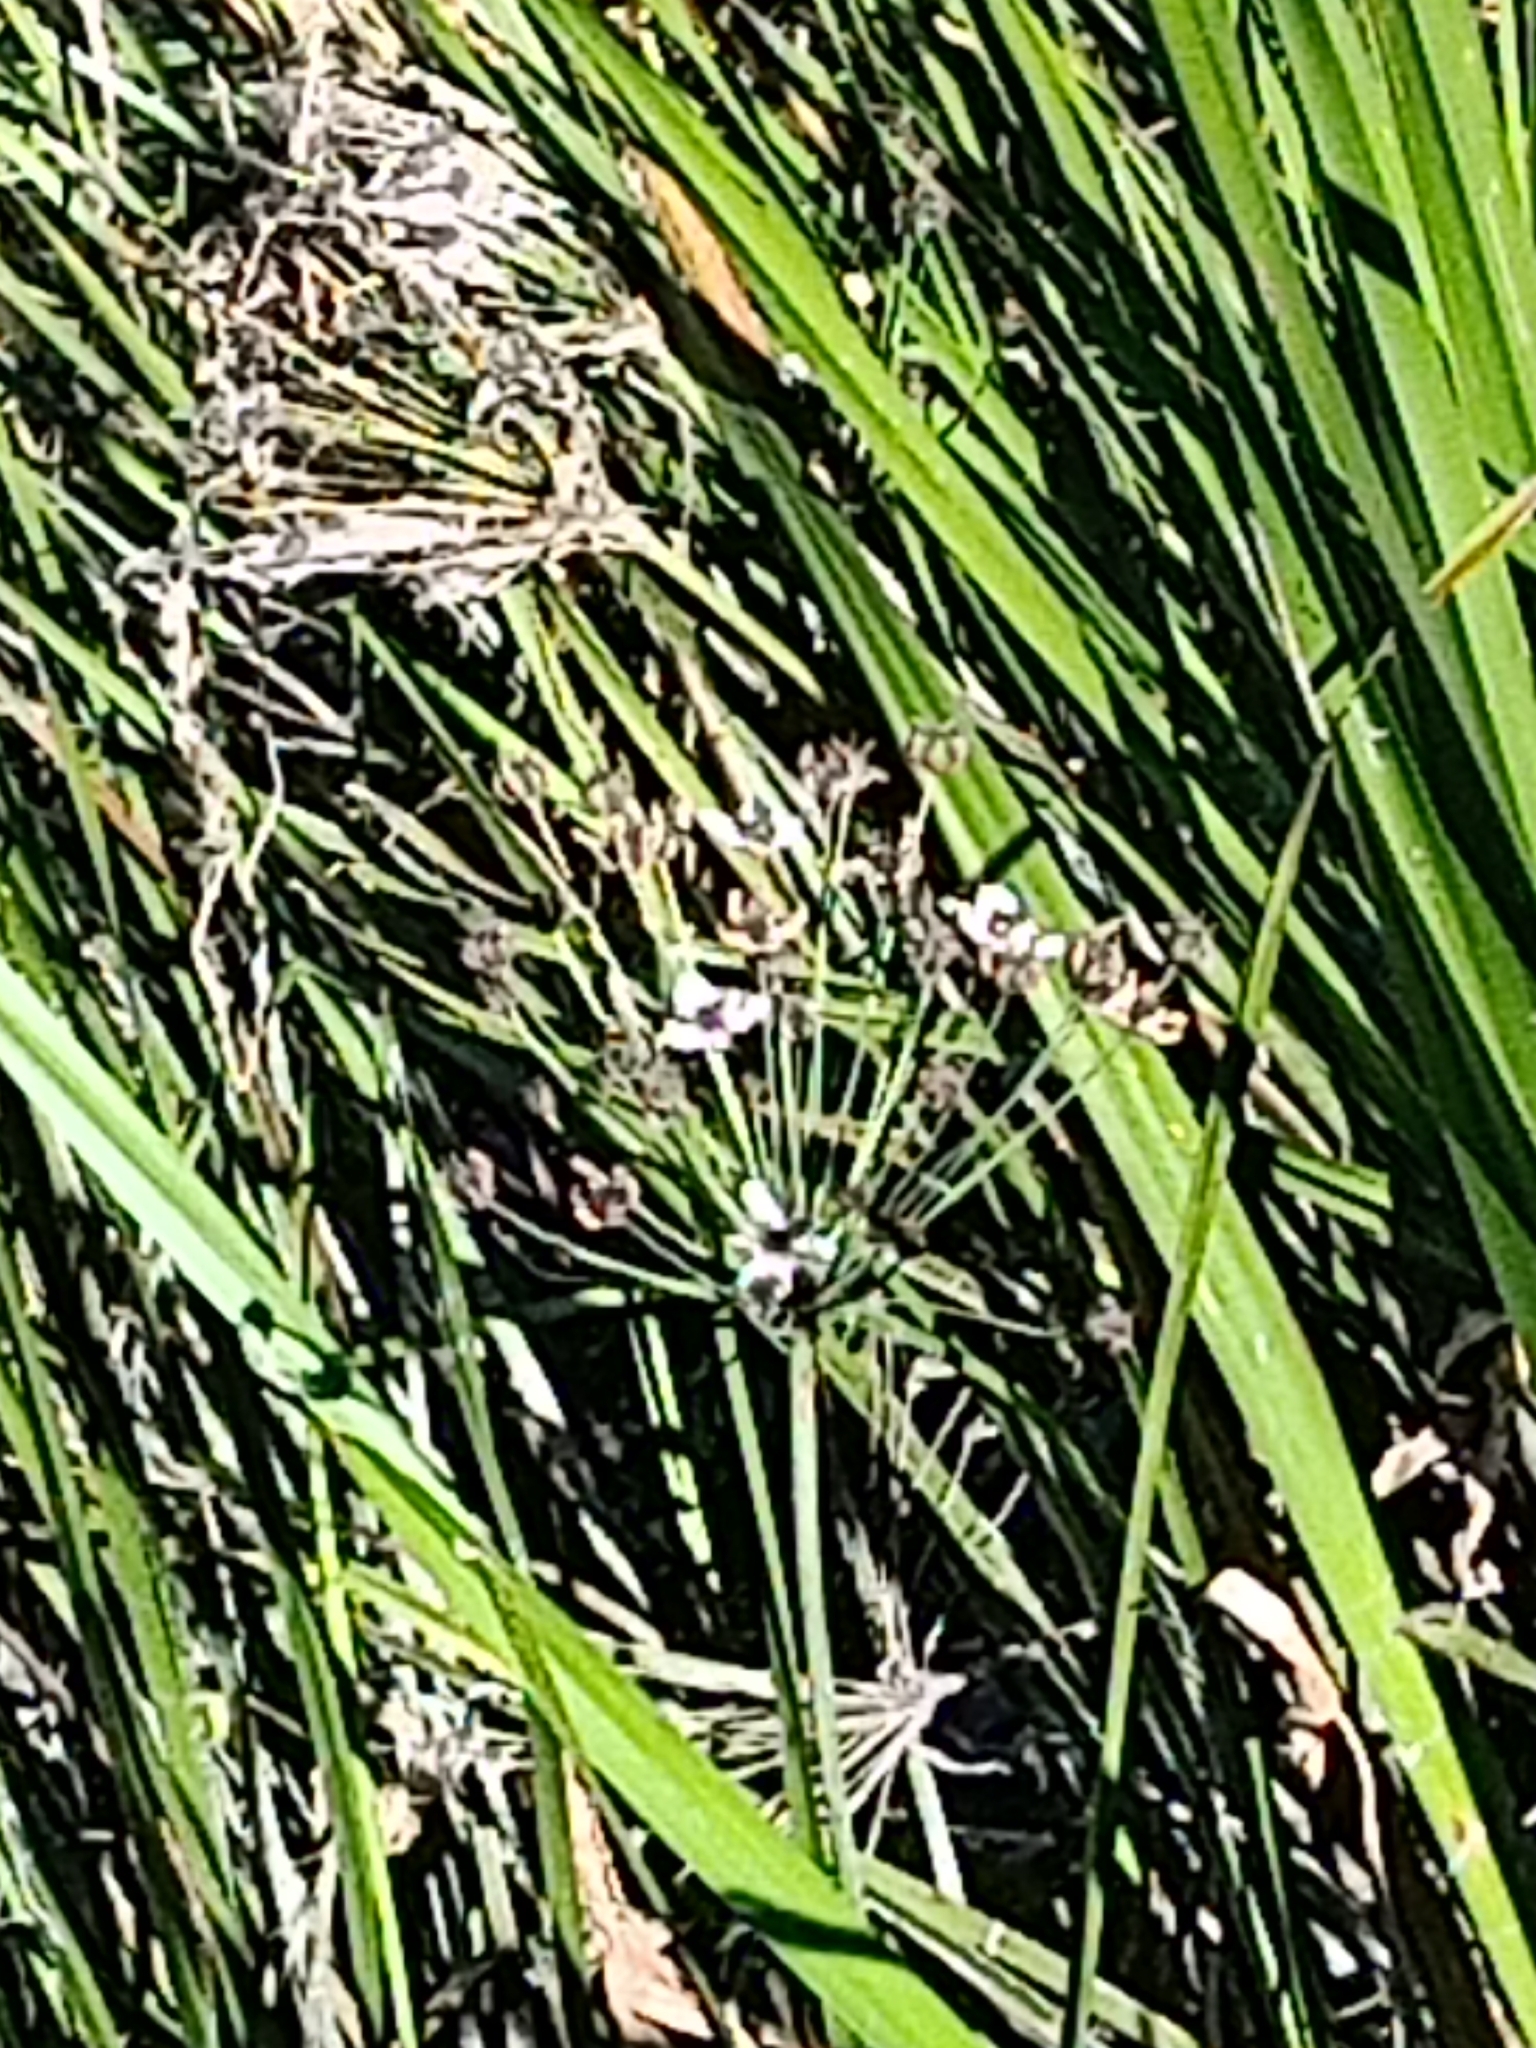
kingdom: Plantae
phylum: Tracheophyta
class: Liliopsida
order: Alismatales
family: Butomaceae
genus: Butomus
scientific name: Butomus umbellatus
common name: Flowering-rush
